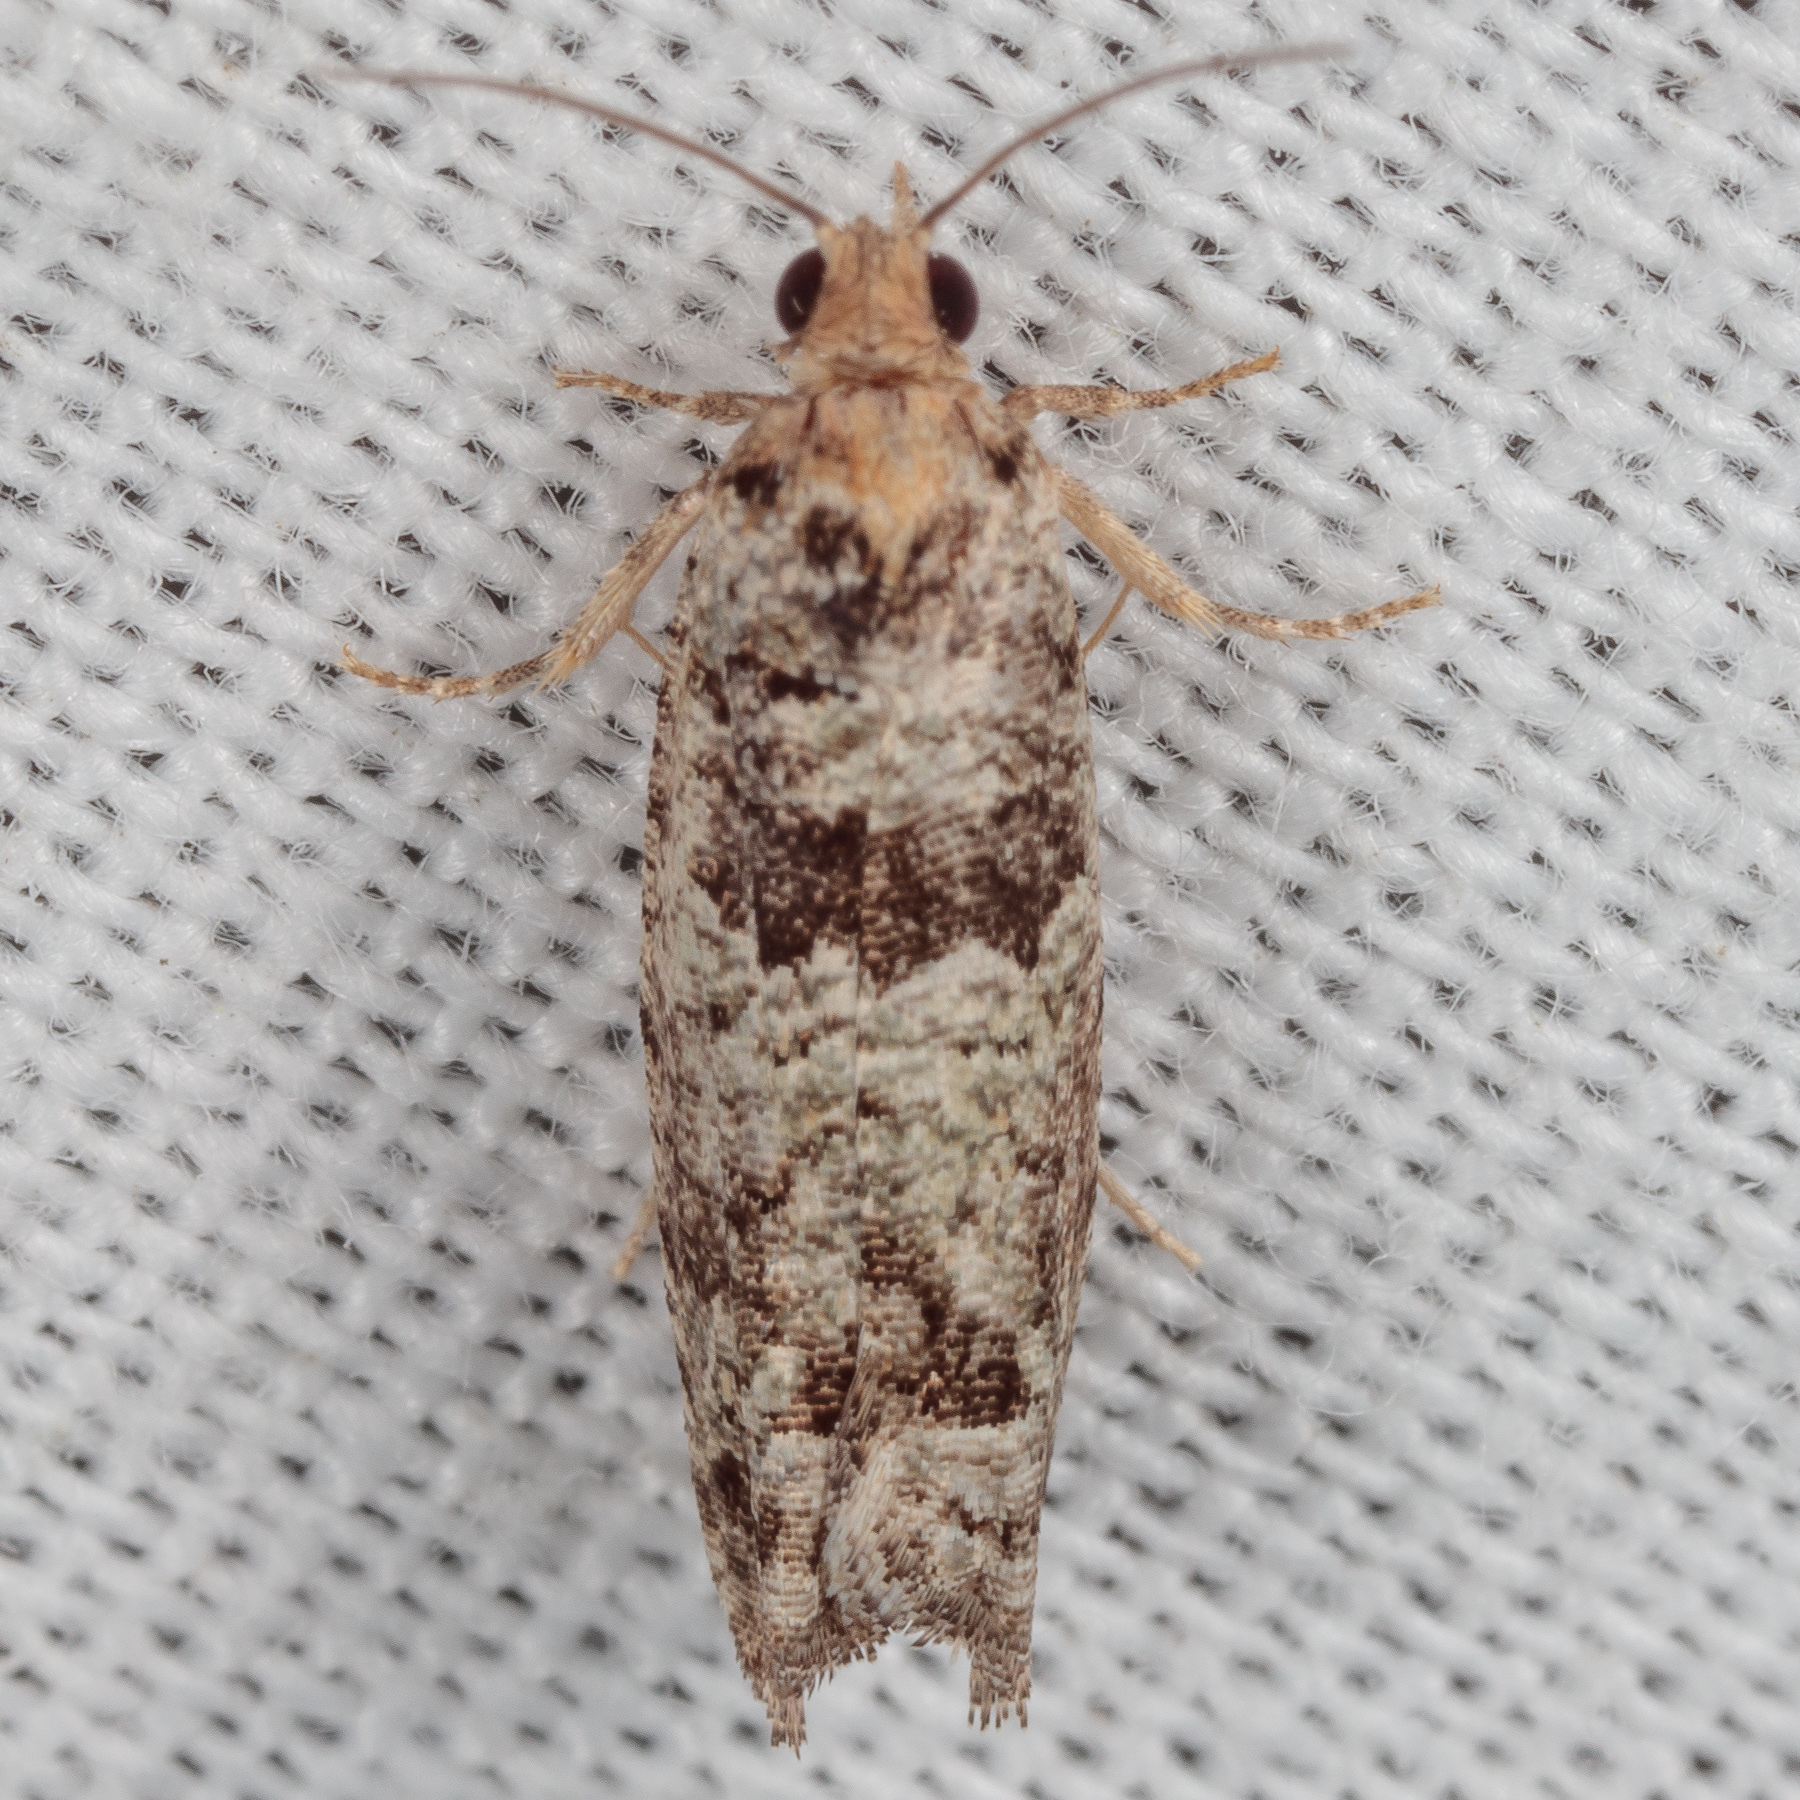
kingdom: Animalia
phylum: Arthropoda
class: Insecta
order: Lepidoptera
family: Tortricidae
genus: Pseudexentera
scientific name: Pseudexentera knudsoni
